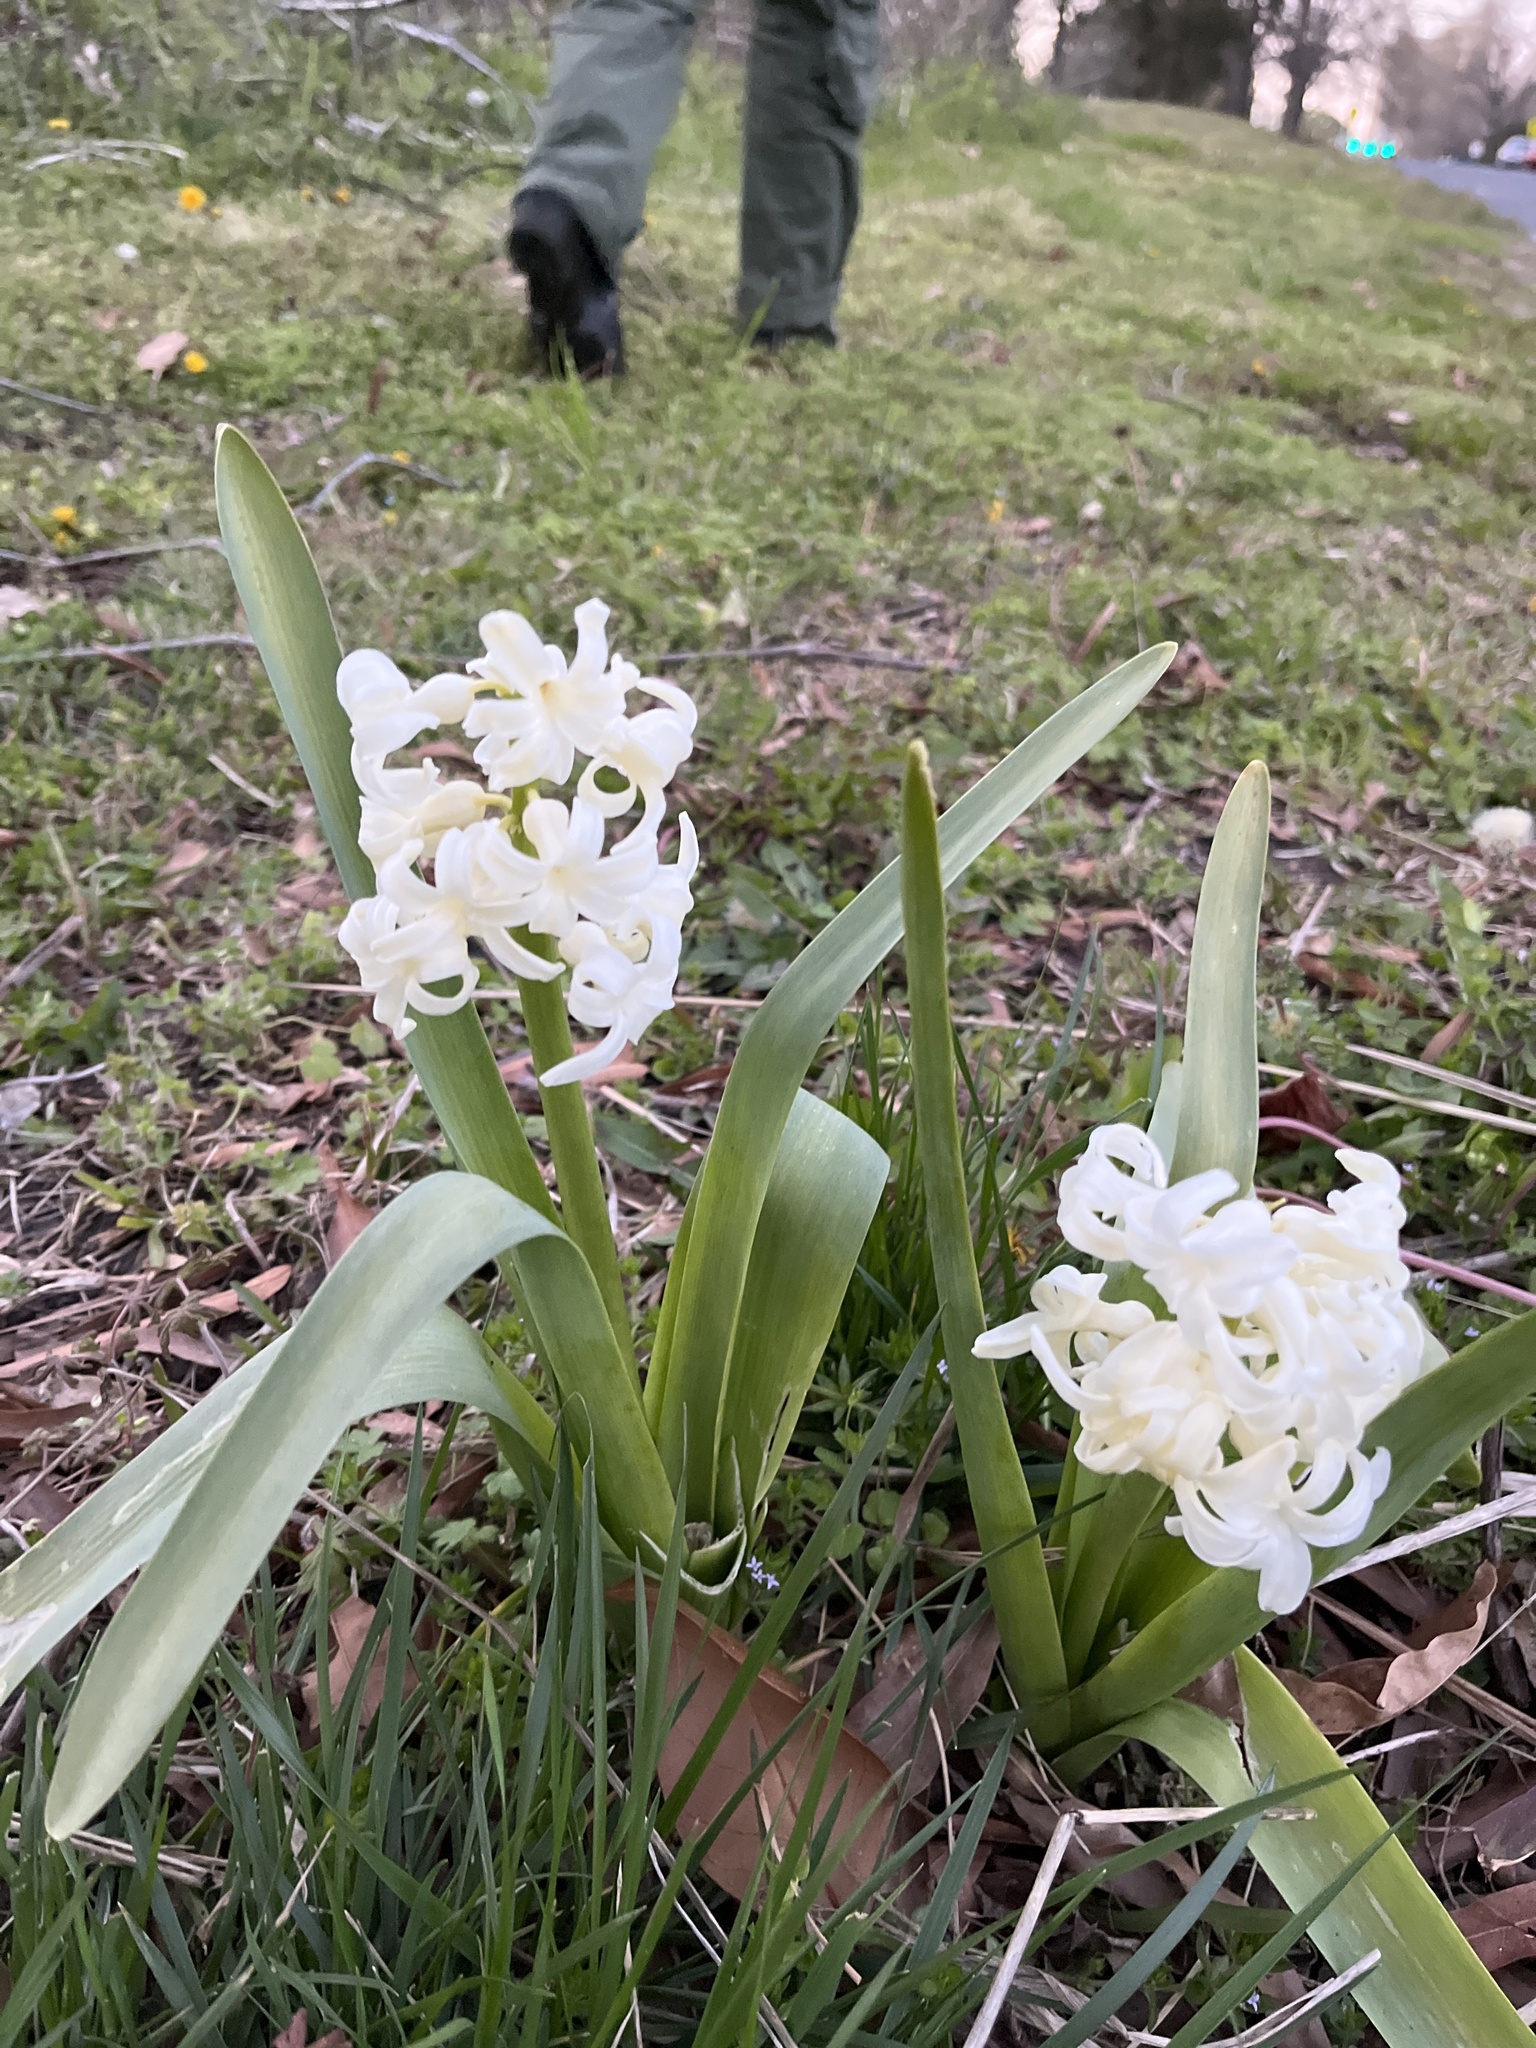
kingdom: Plantae
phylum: Tracheophyta
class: Liliopsida
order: Asparagales
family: Asparagaceae
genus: Hyacinthus
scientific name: Hyacinthus orientalis
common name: Hyacinth
